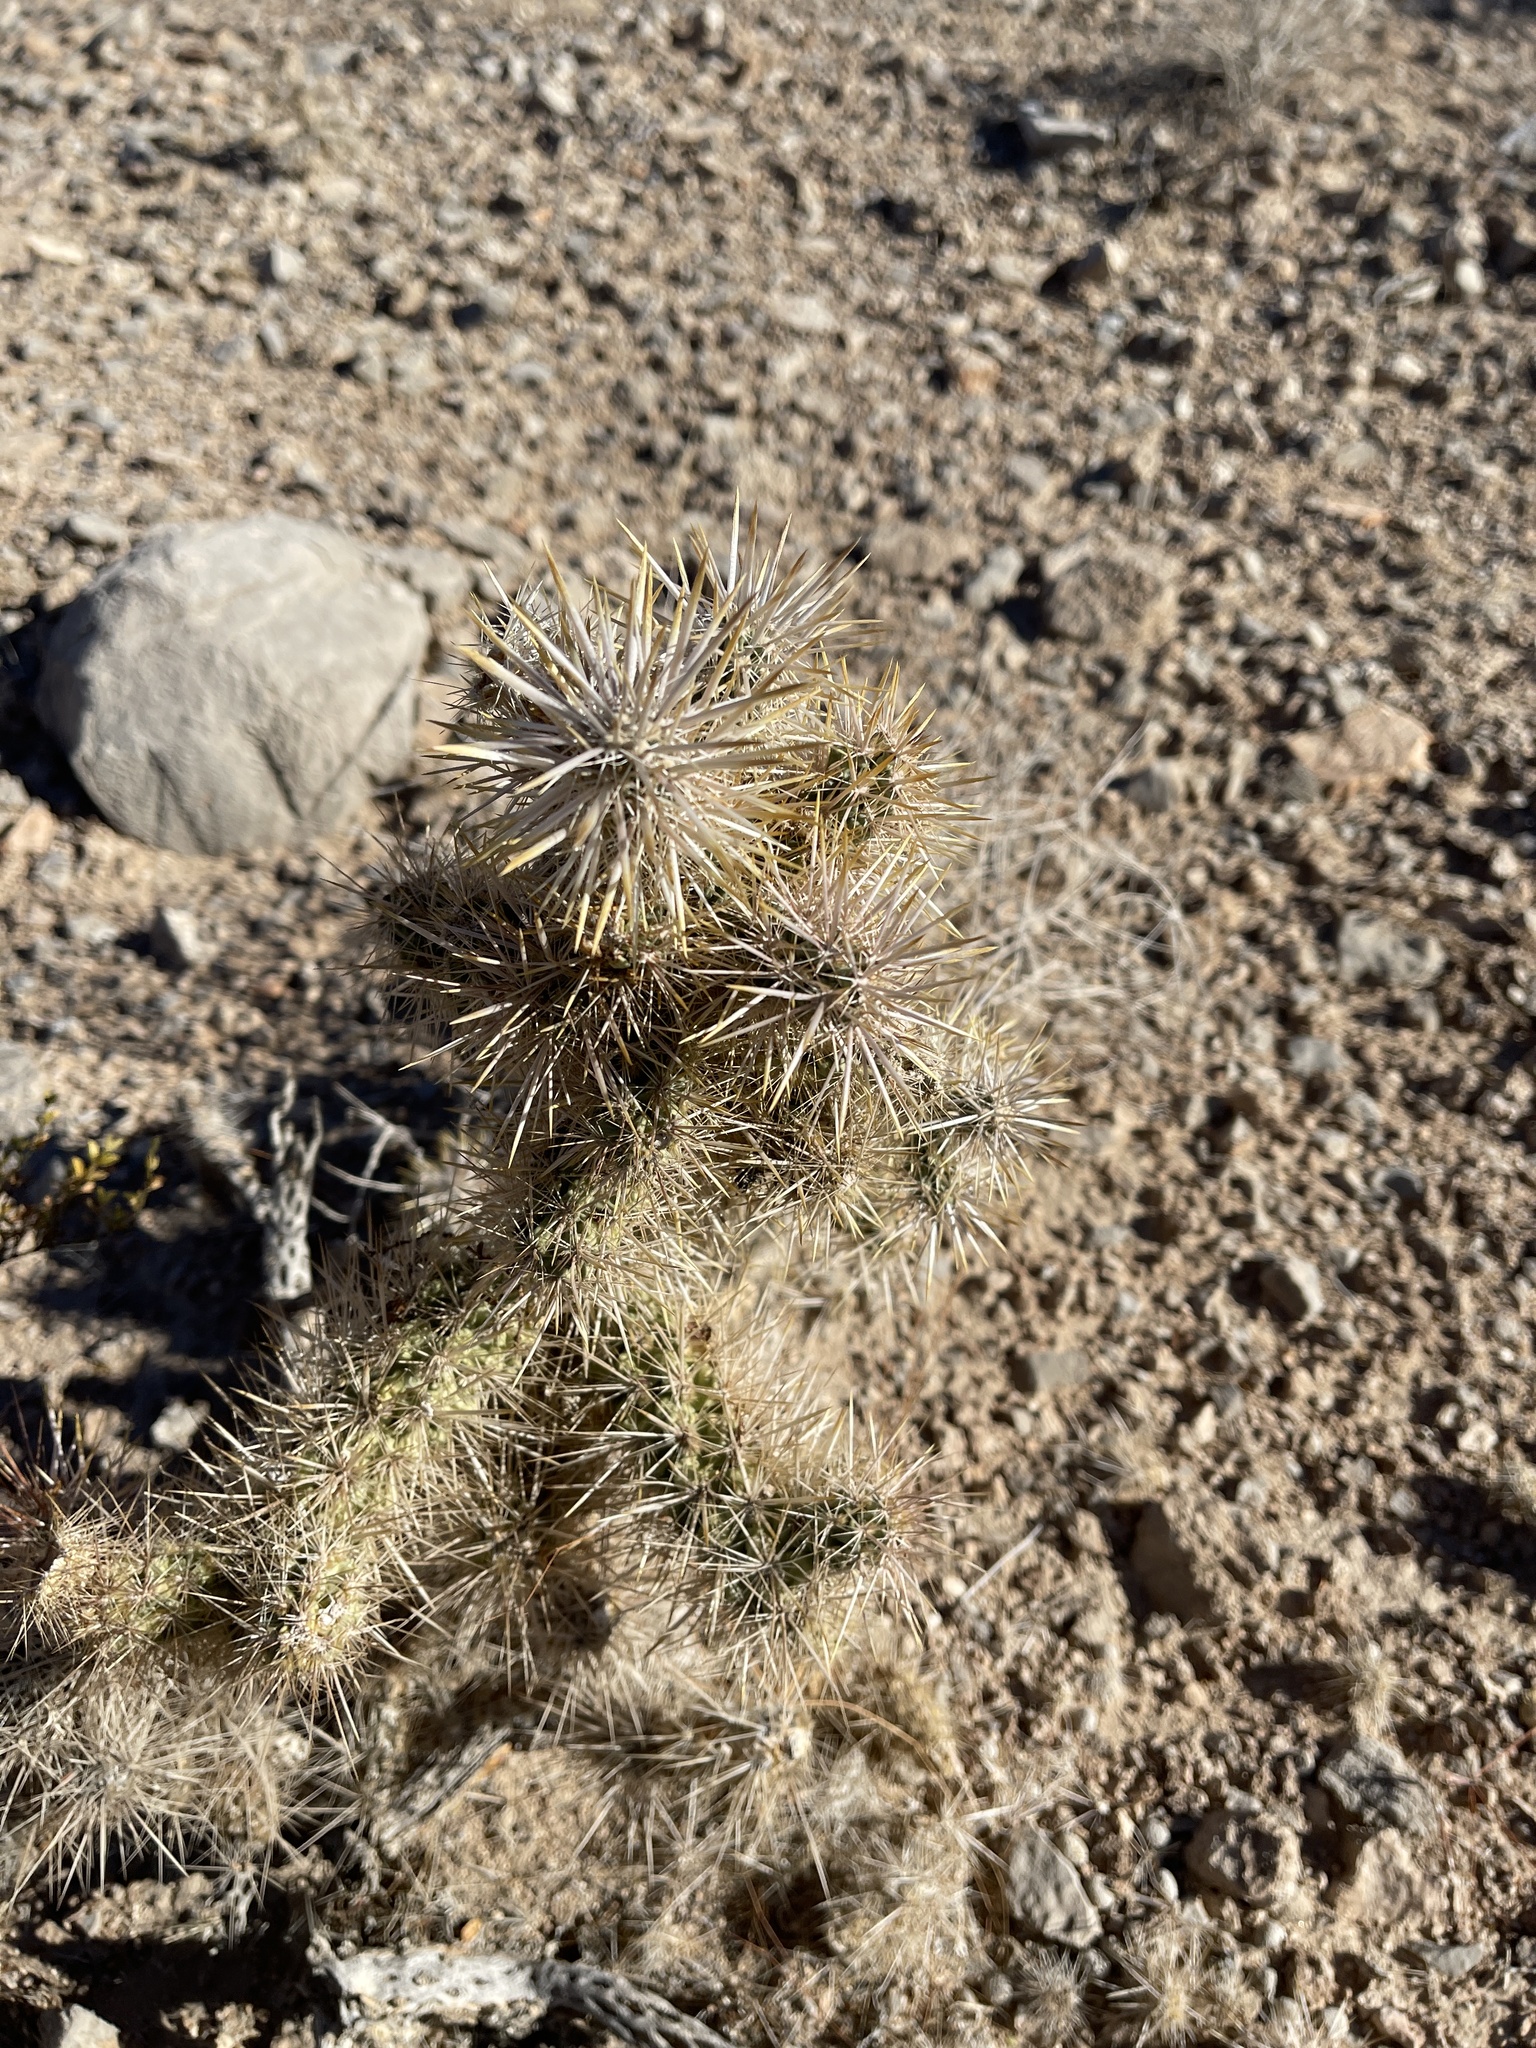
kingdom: Plantae
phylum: Tracheophyta
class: Magnoliopsida
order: Caryophyllales
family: Cactaceae
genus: Cylindropuntia
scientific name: Cylindropuntia echinocarpa
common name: Ground cholla
